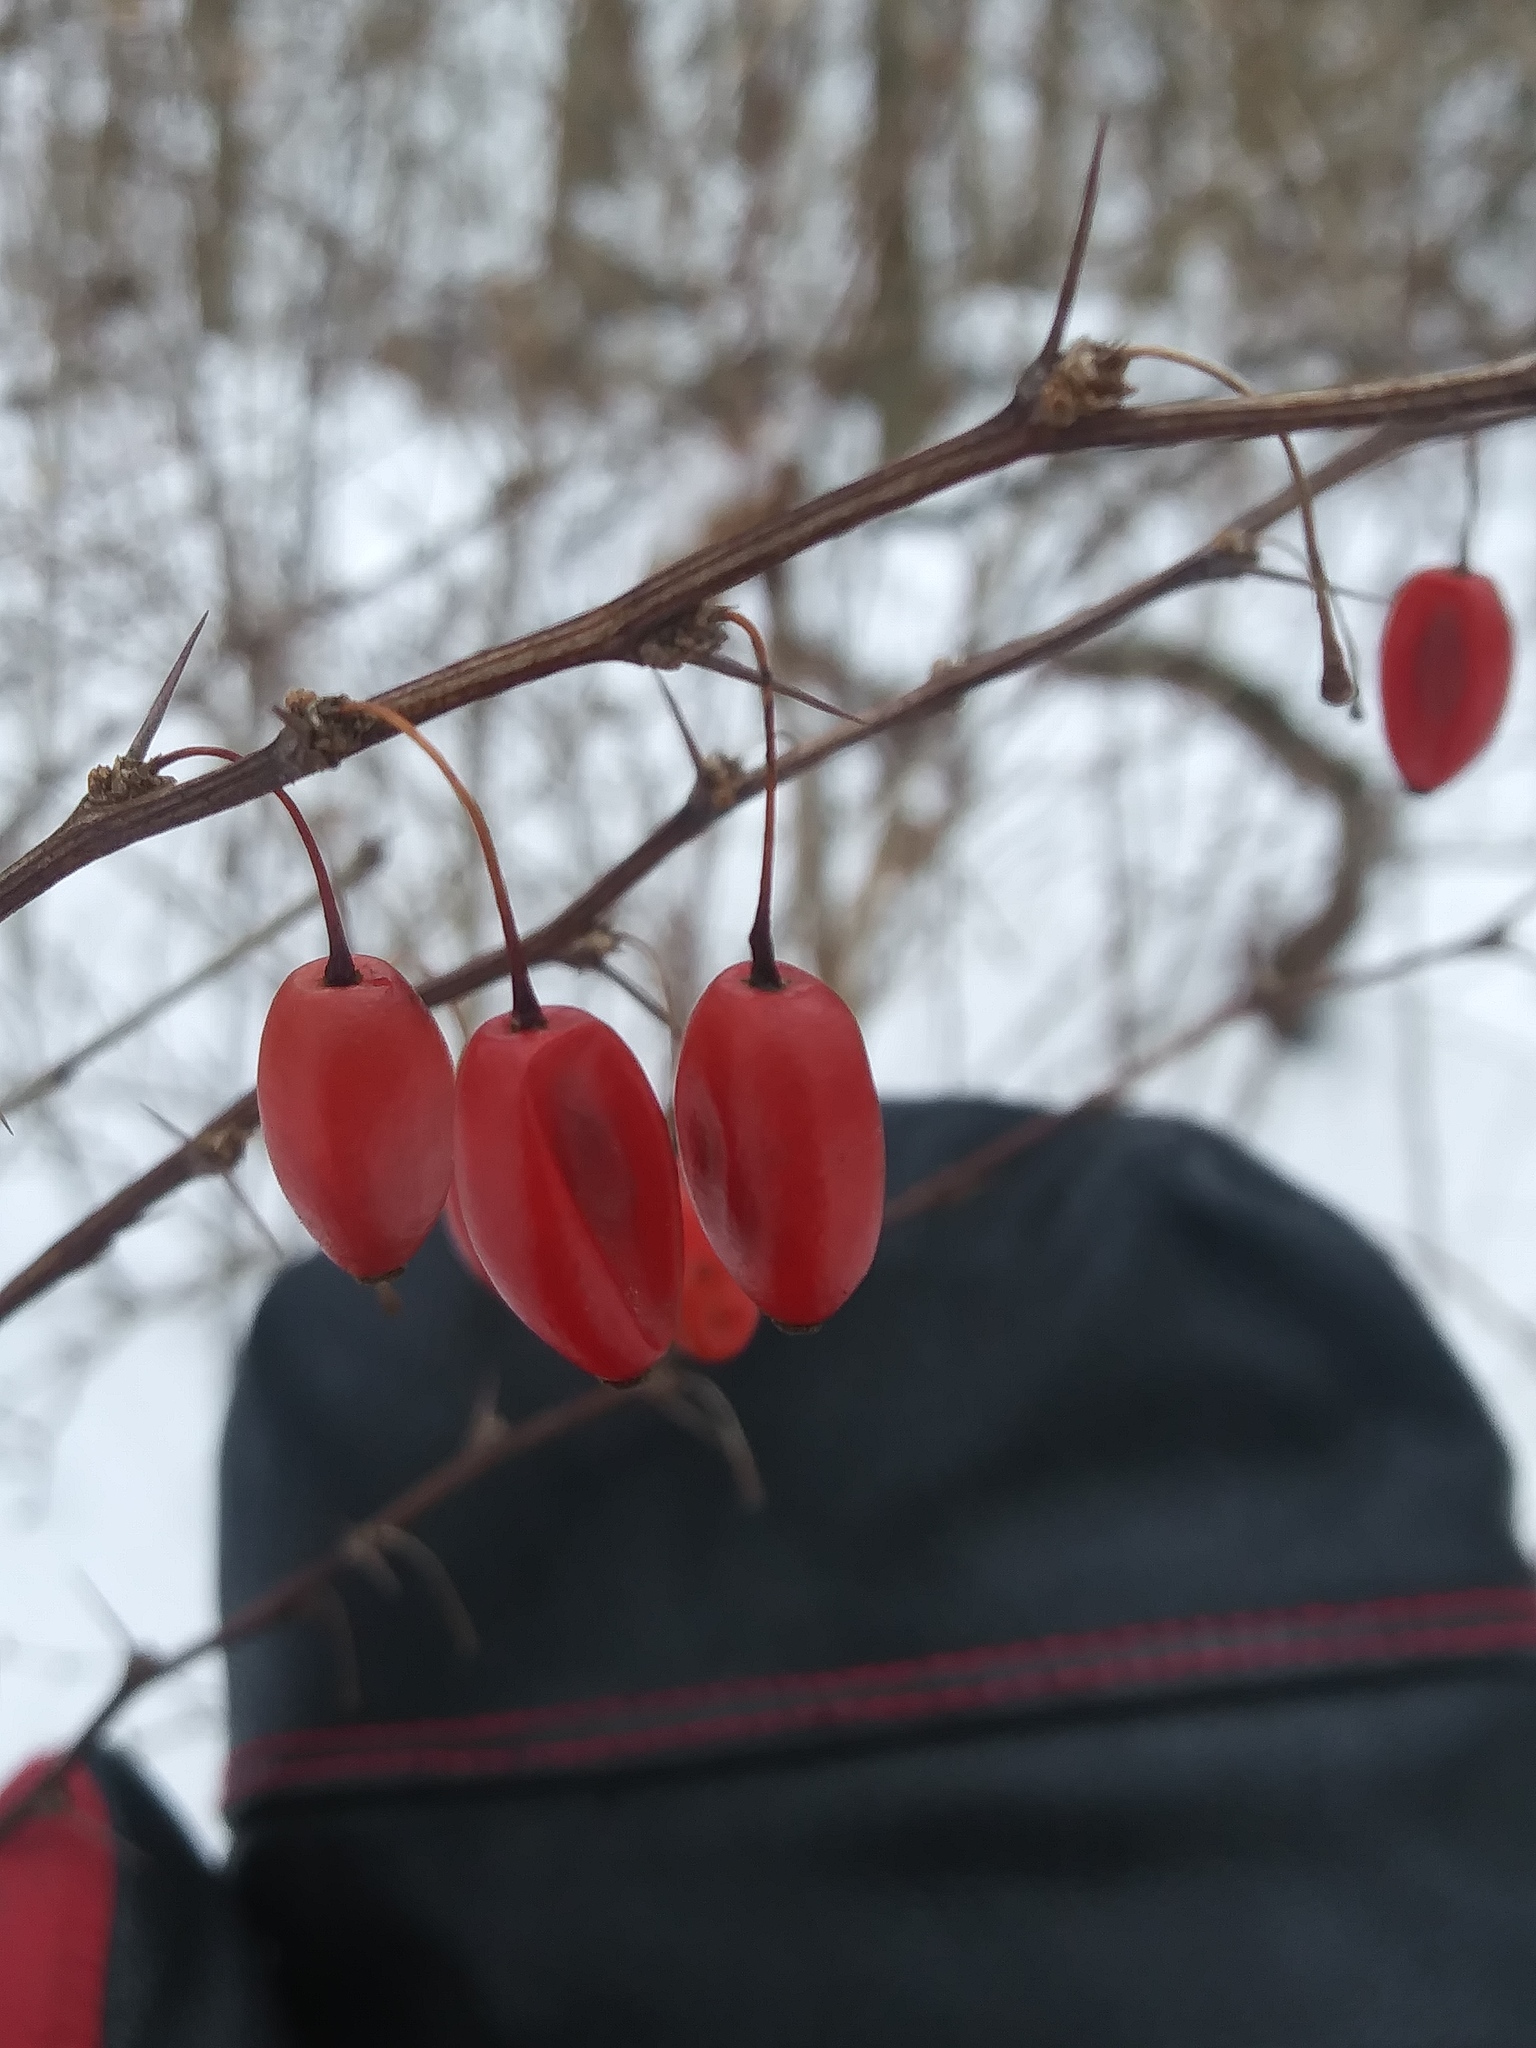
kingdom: Plantae
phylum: Tracheophyta
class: Magnoliopsida
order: Ranunculales
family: Berberidaceae
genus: Berberis
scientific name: Berberis thunbergii
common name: Japanese barberry
